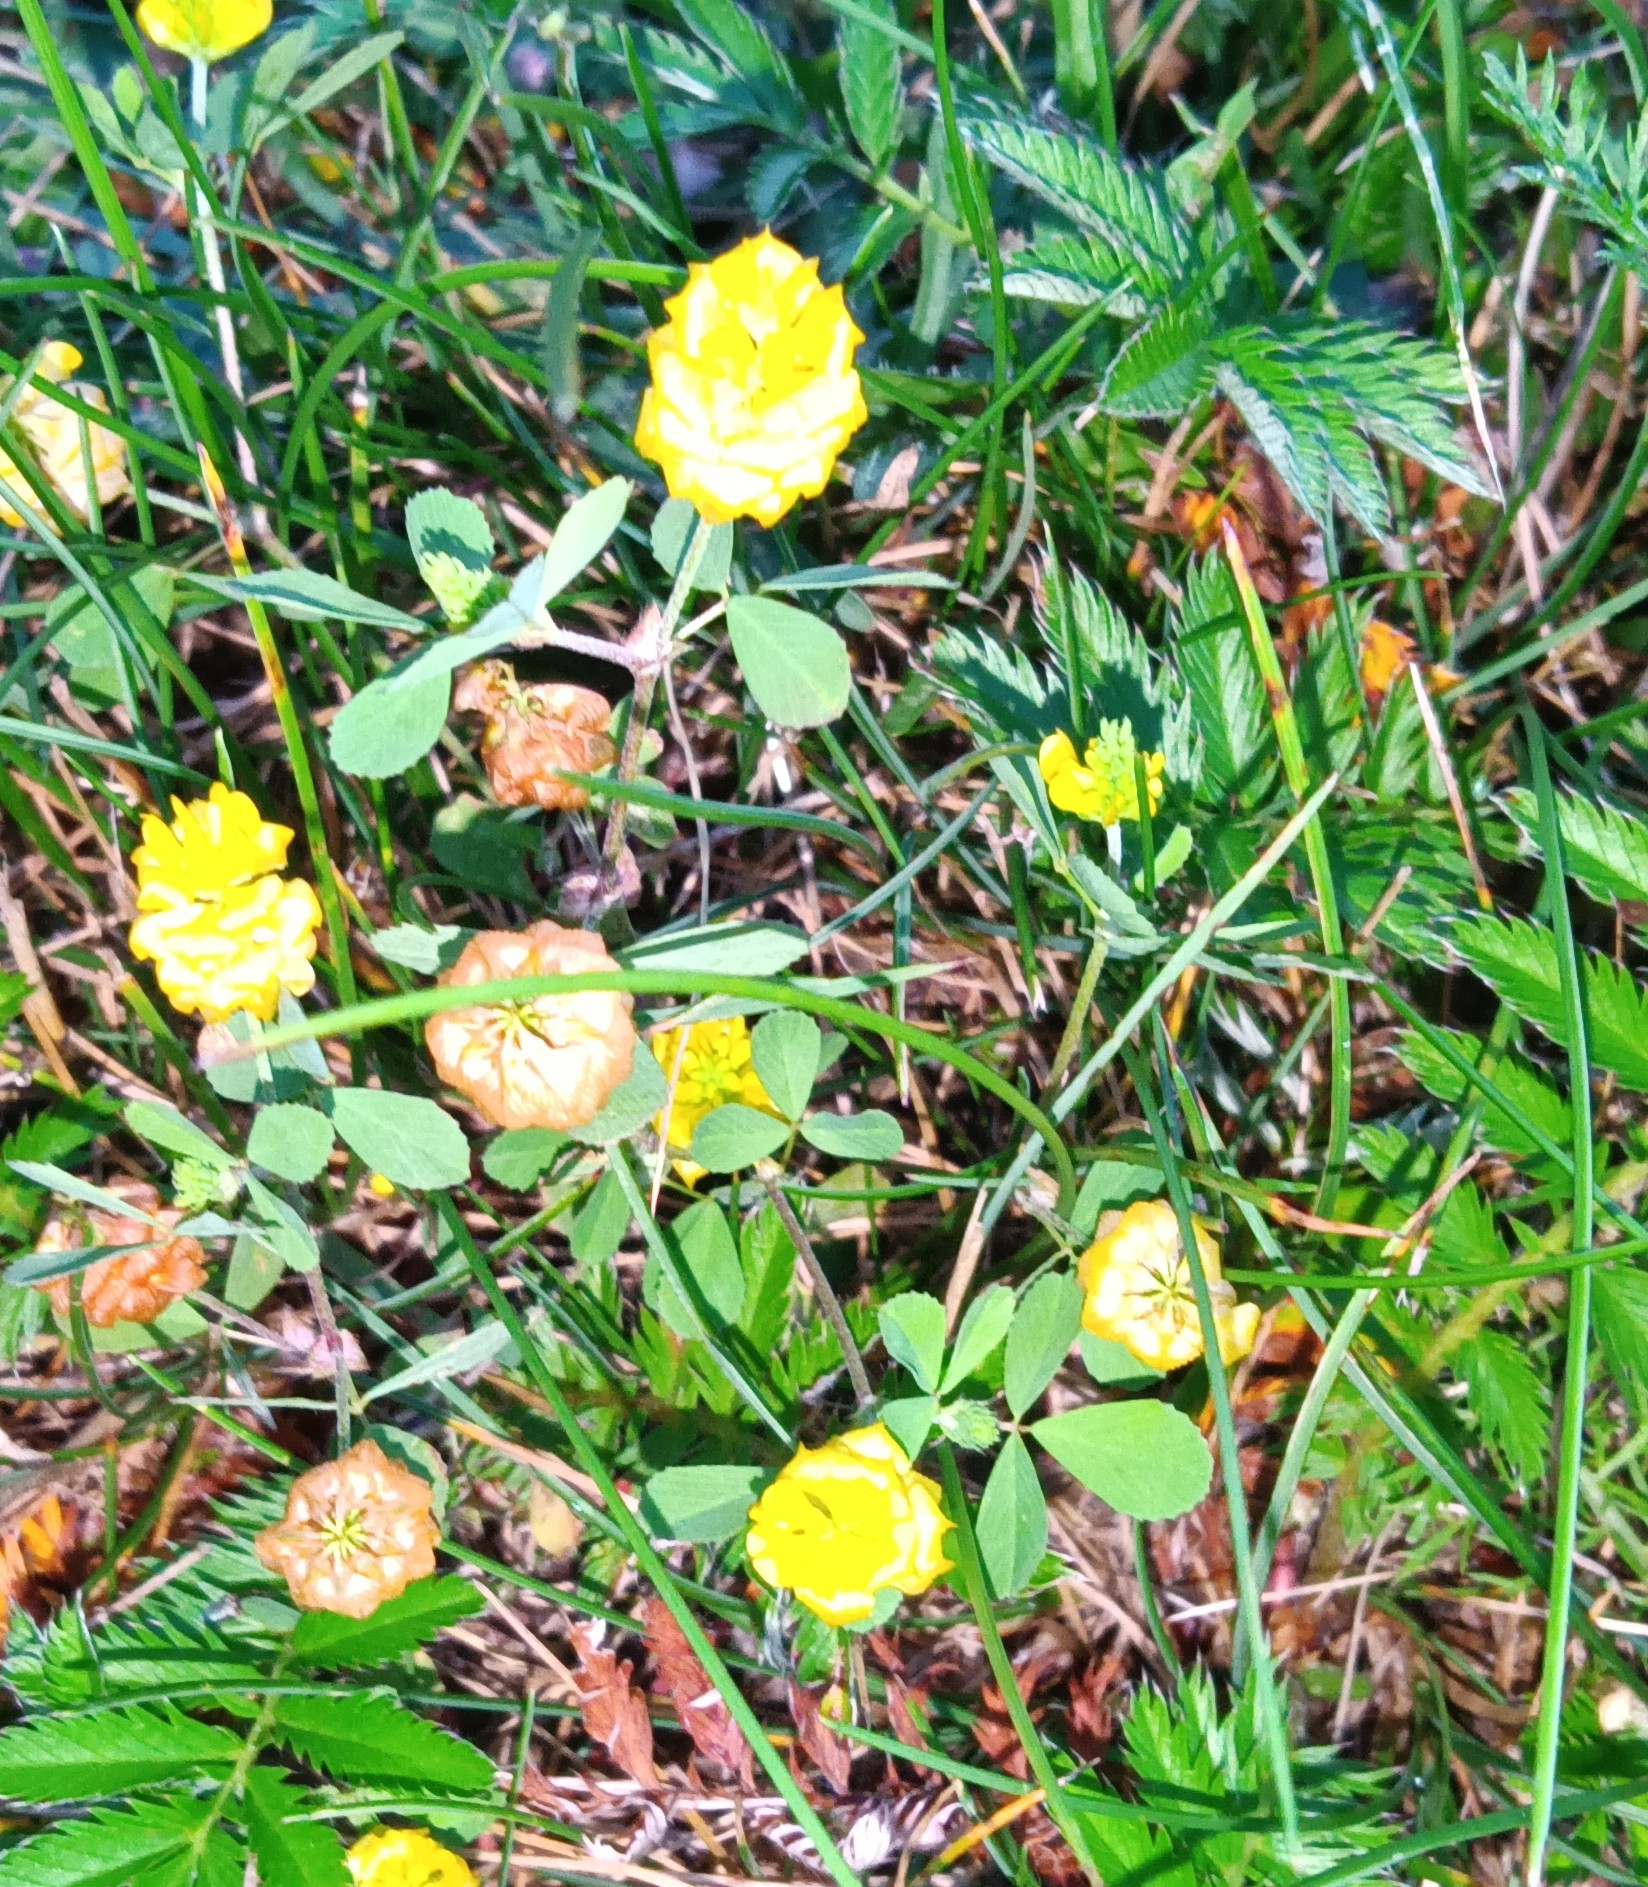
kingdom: Plantae
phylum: Tracheophyta
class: Magnoliopsida
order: Fabales
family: Fabaceae
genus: Trifolium
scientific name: Trifolium campestre
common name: Field clover
